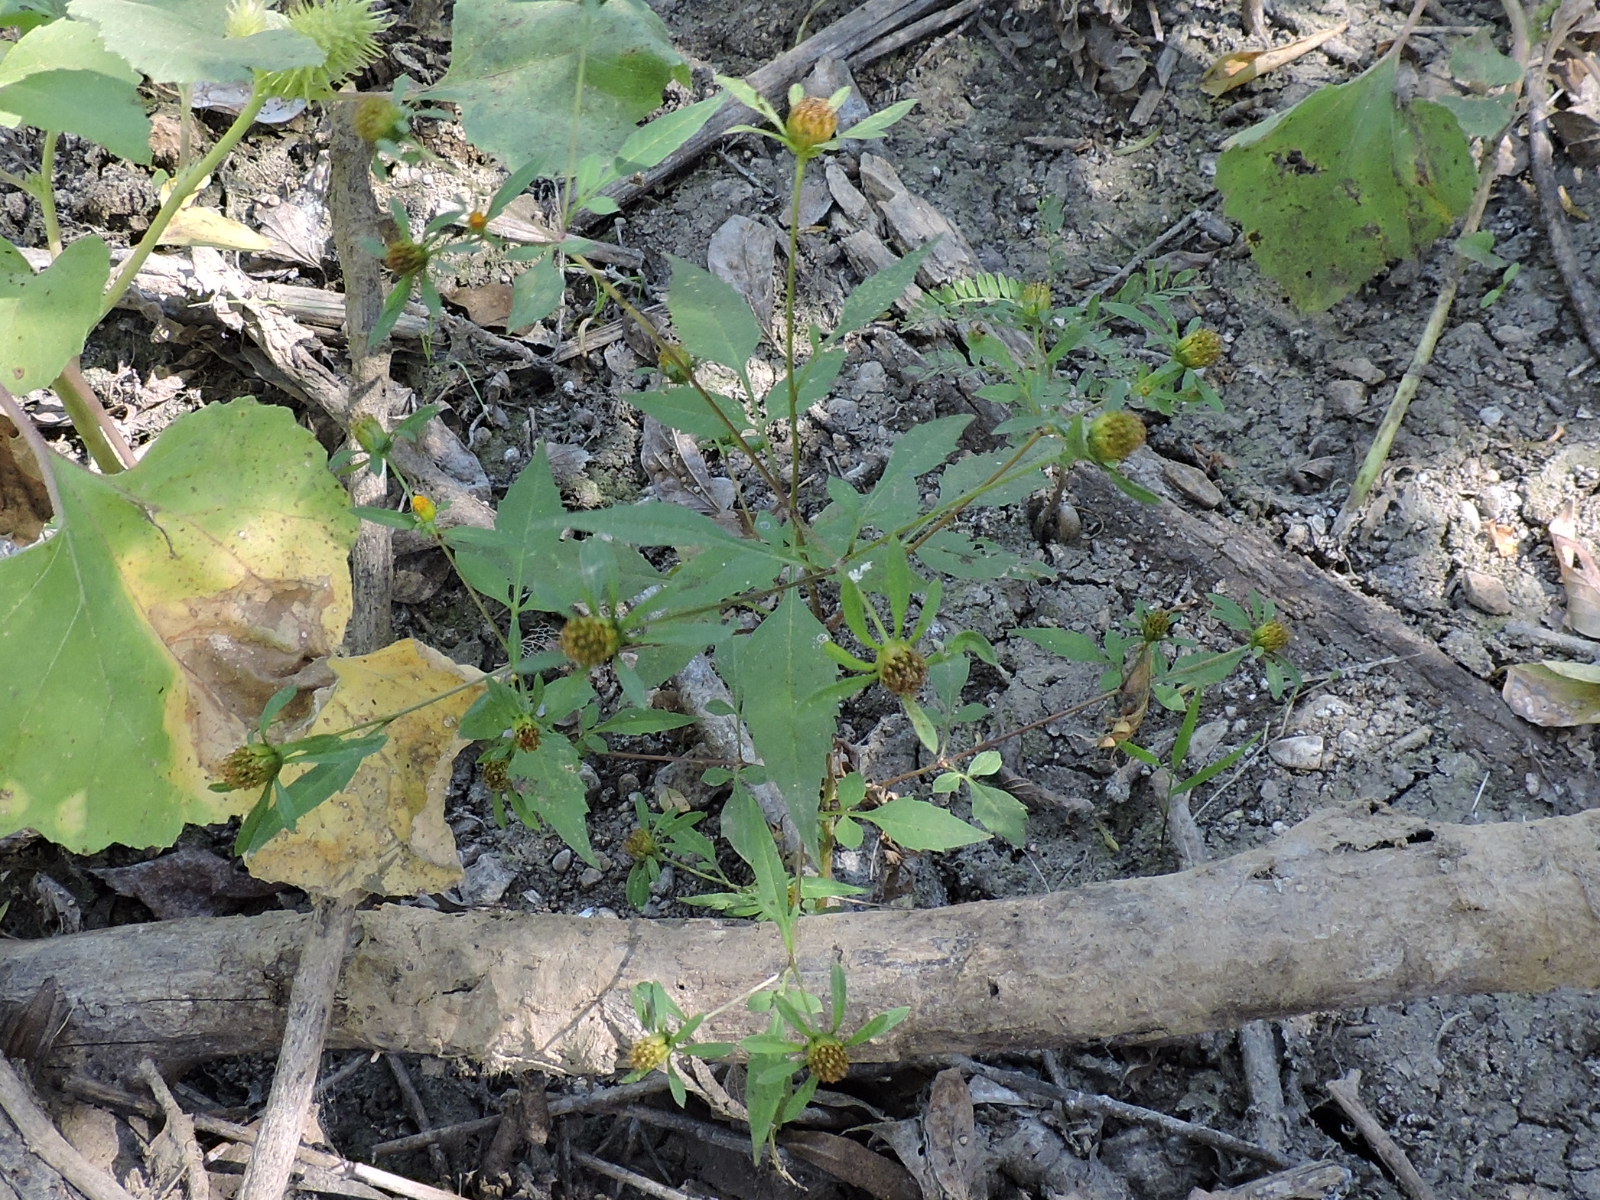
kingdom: Plantae
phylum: Tracheophyta
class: Magnoliopsida
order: Asterales
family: Asteraceae
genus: Bidens
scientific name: Bidens frondosa
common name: Beggarticks
